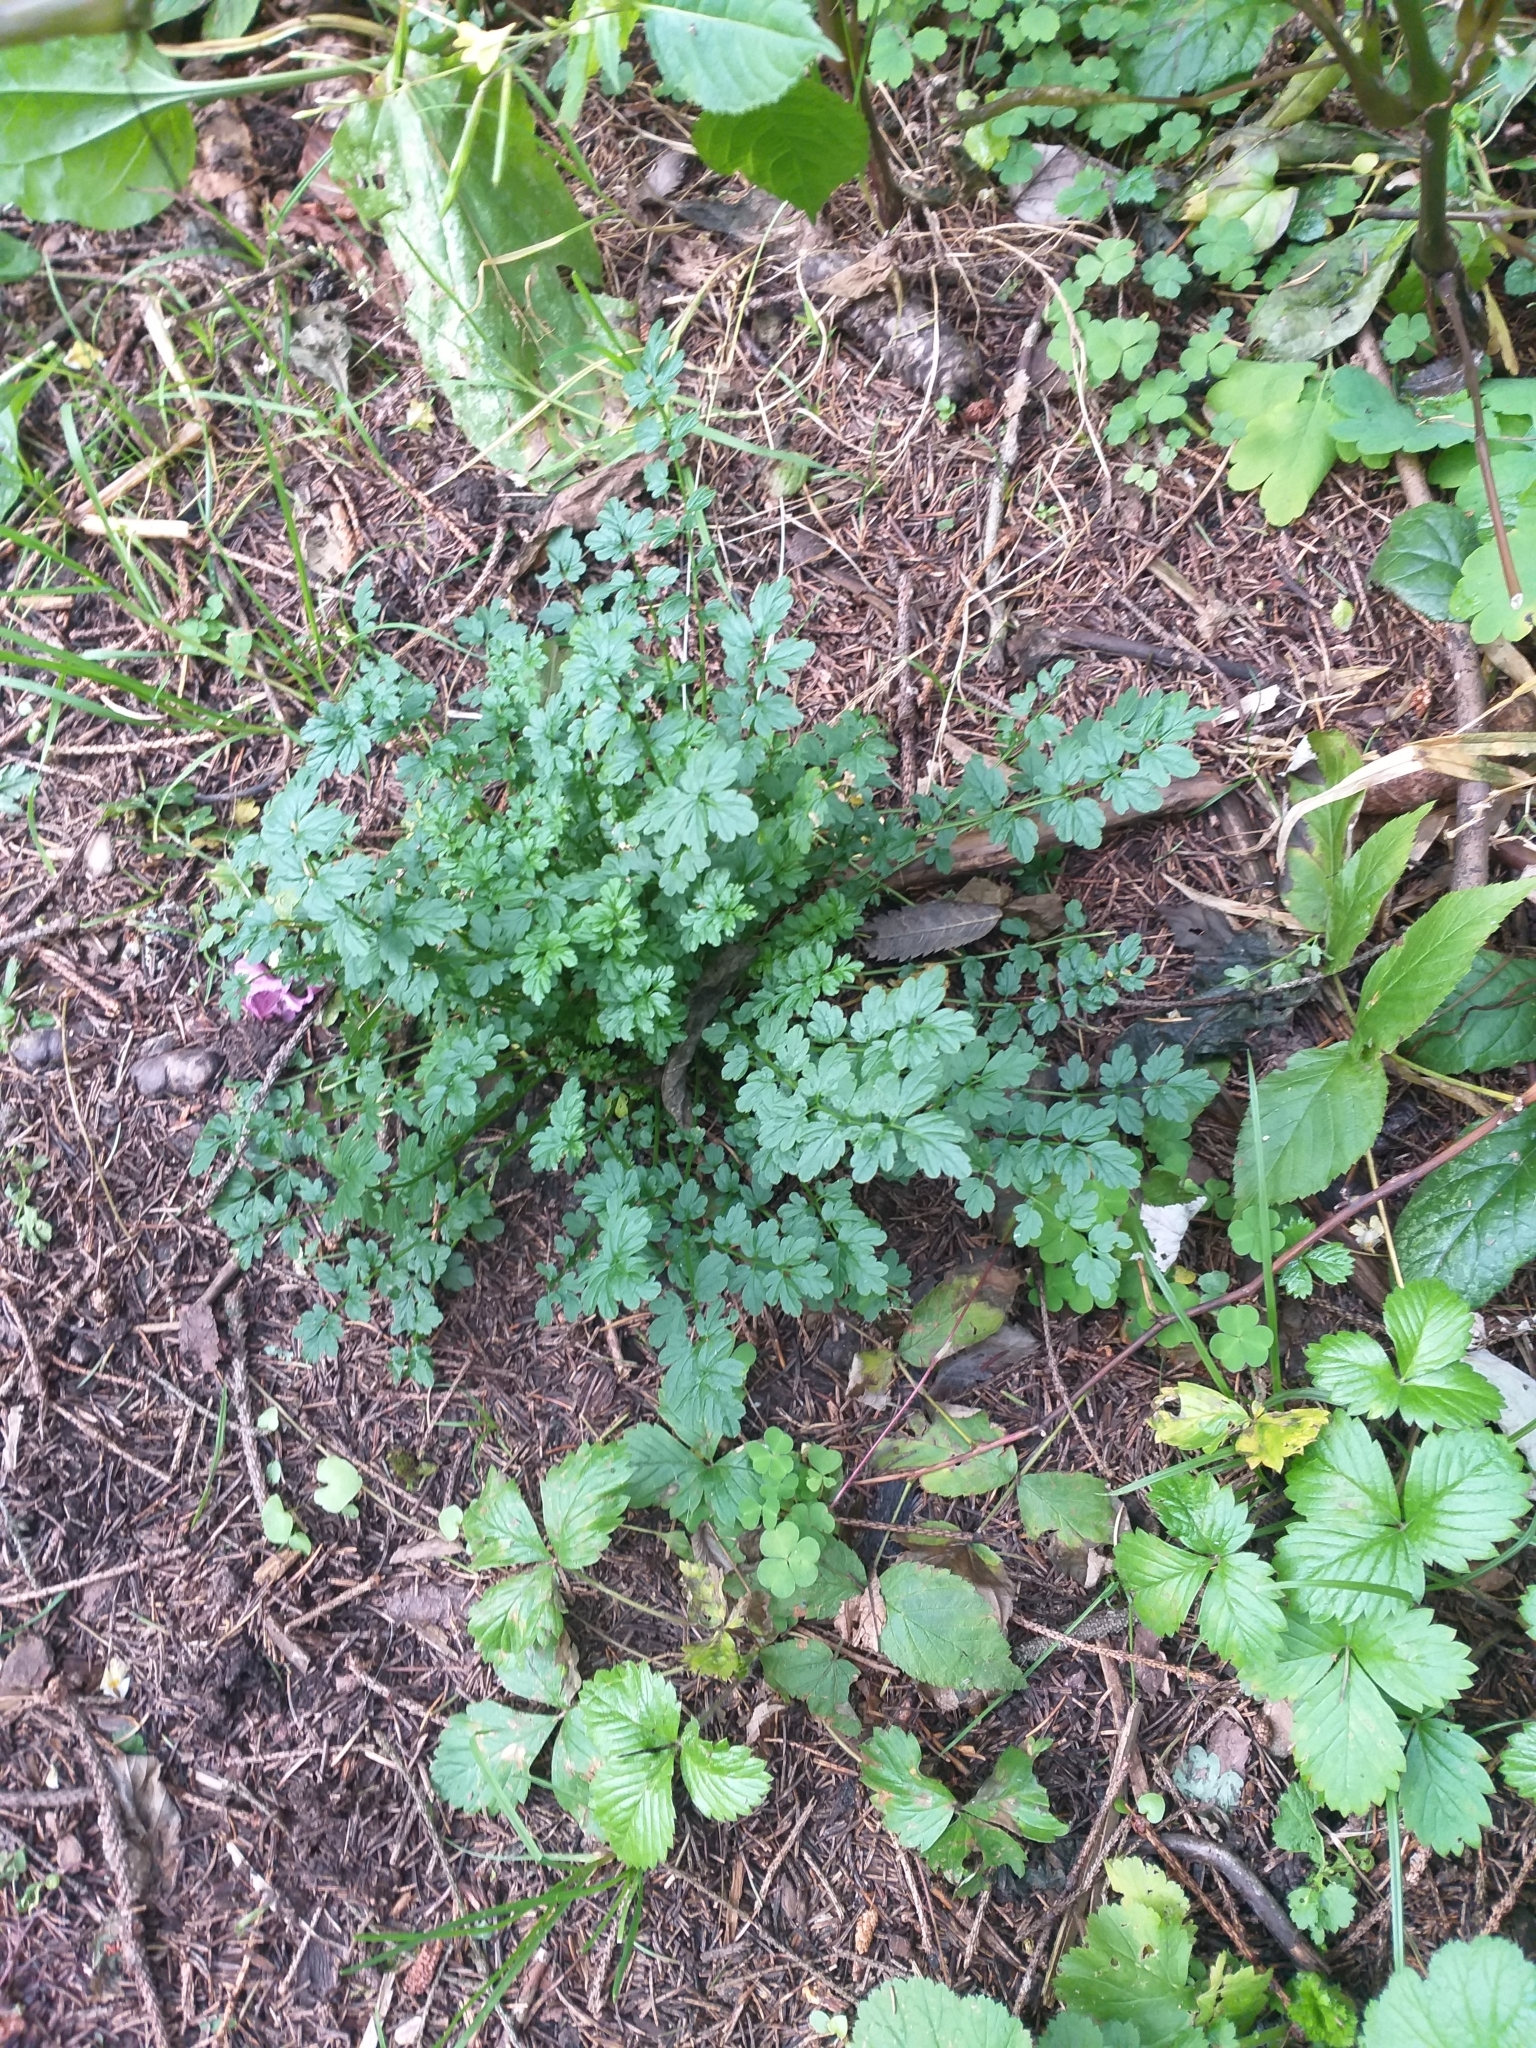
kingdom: Plantae
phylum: Tracheophyta
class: Magnoliopsida
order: Brassicales
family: Brassicaceae
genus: Cardamine
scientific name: Cardamine impatiens
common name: Narrow-leaved bitter-cress
